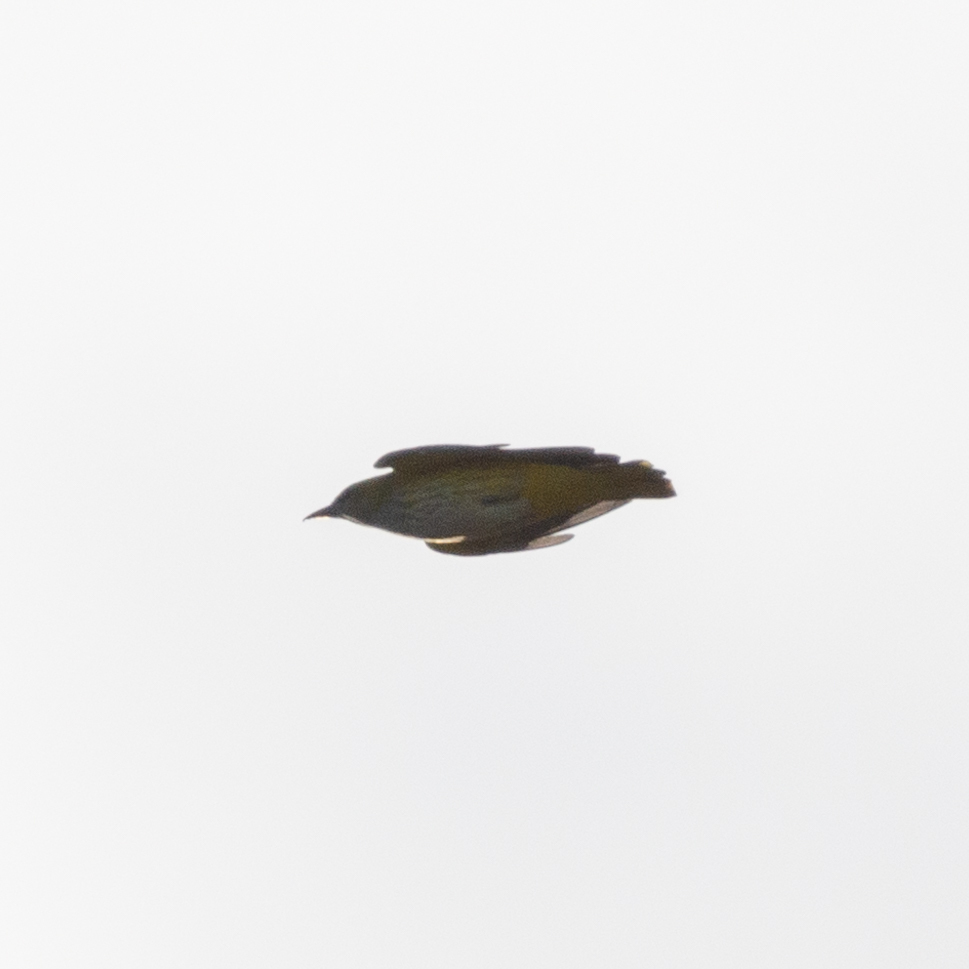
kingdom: Animalia
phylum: Chordata
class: Aves
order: Passeriformes
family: Oriolidae
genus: Oriolus
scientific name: Oriolus oriolus
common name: Eurasian golden oriole
